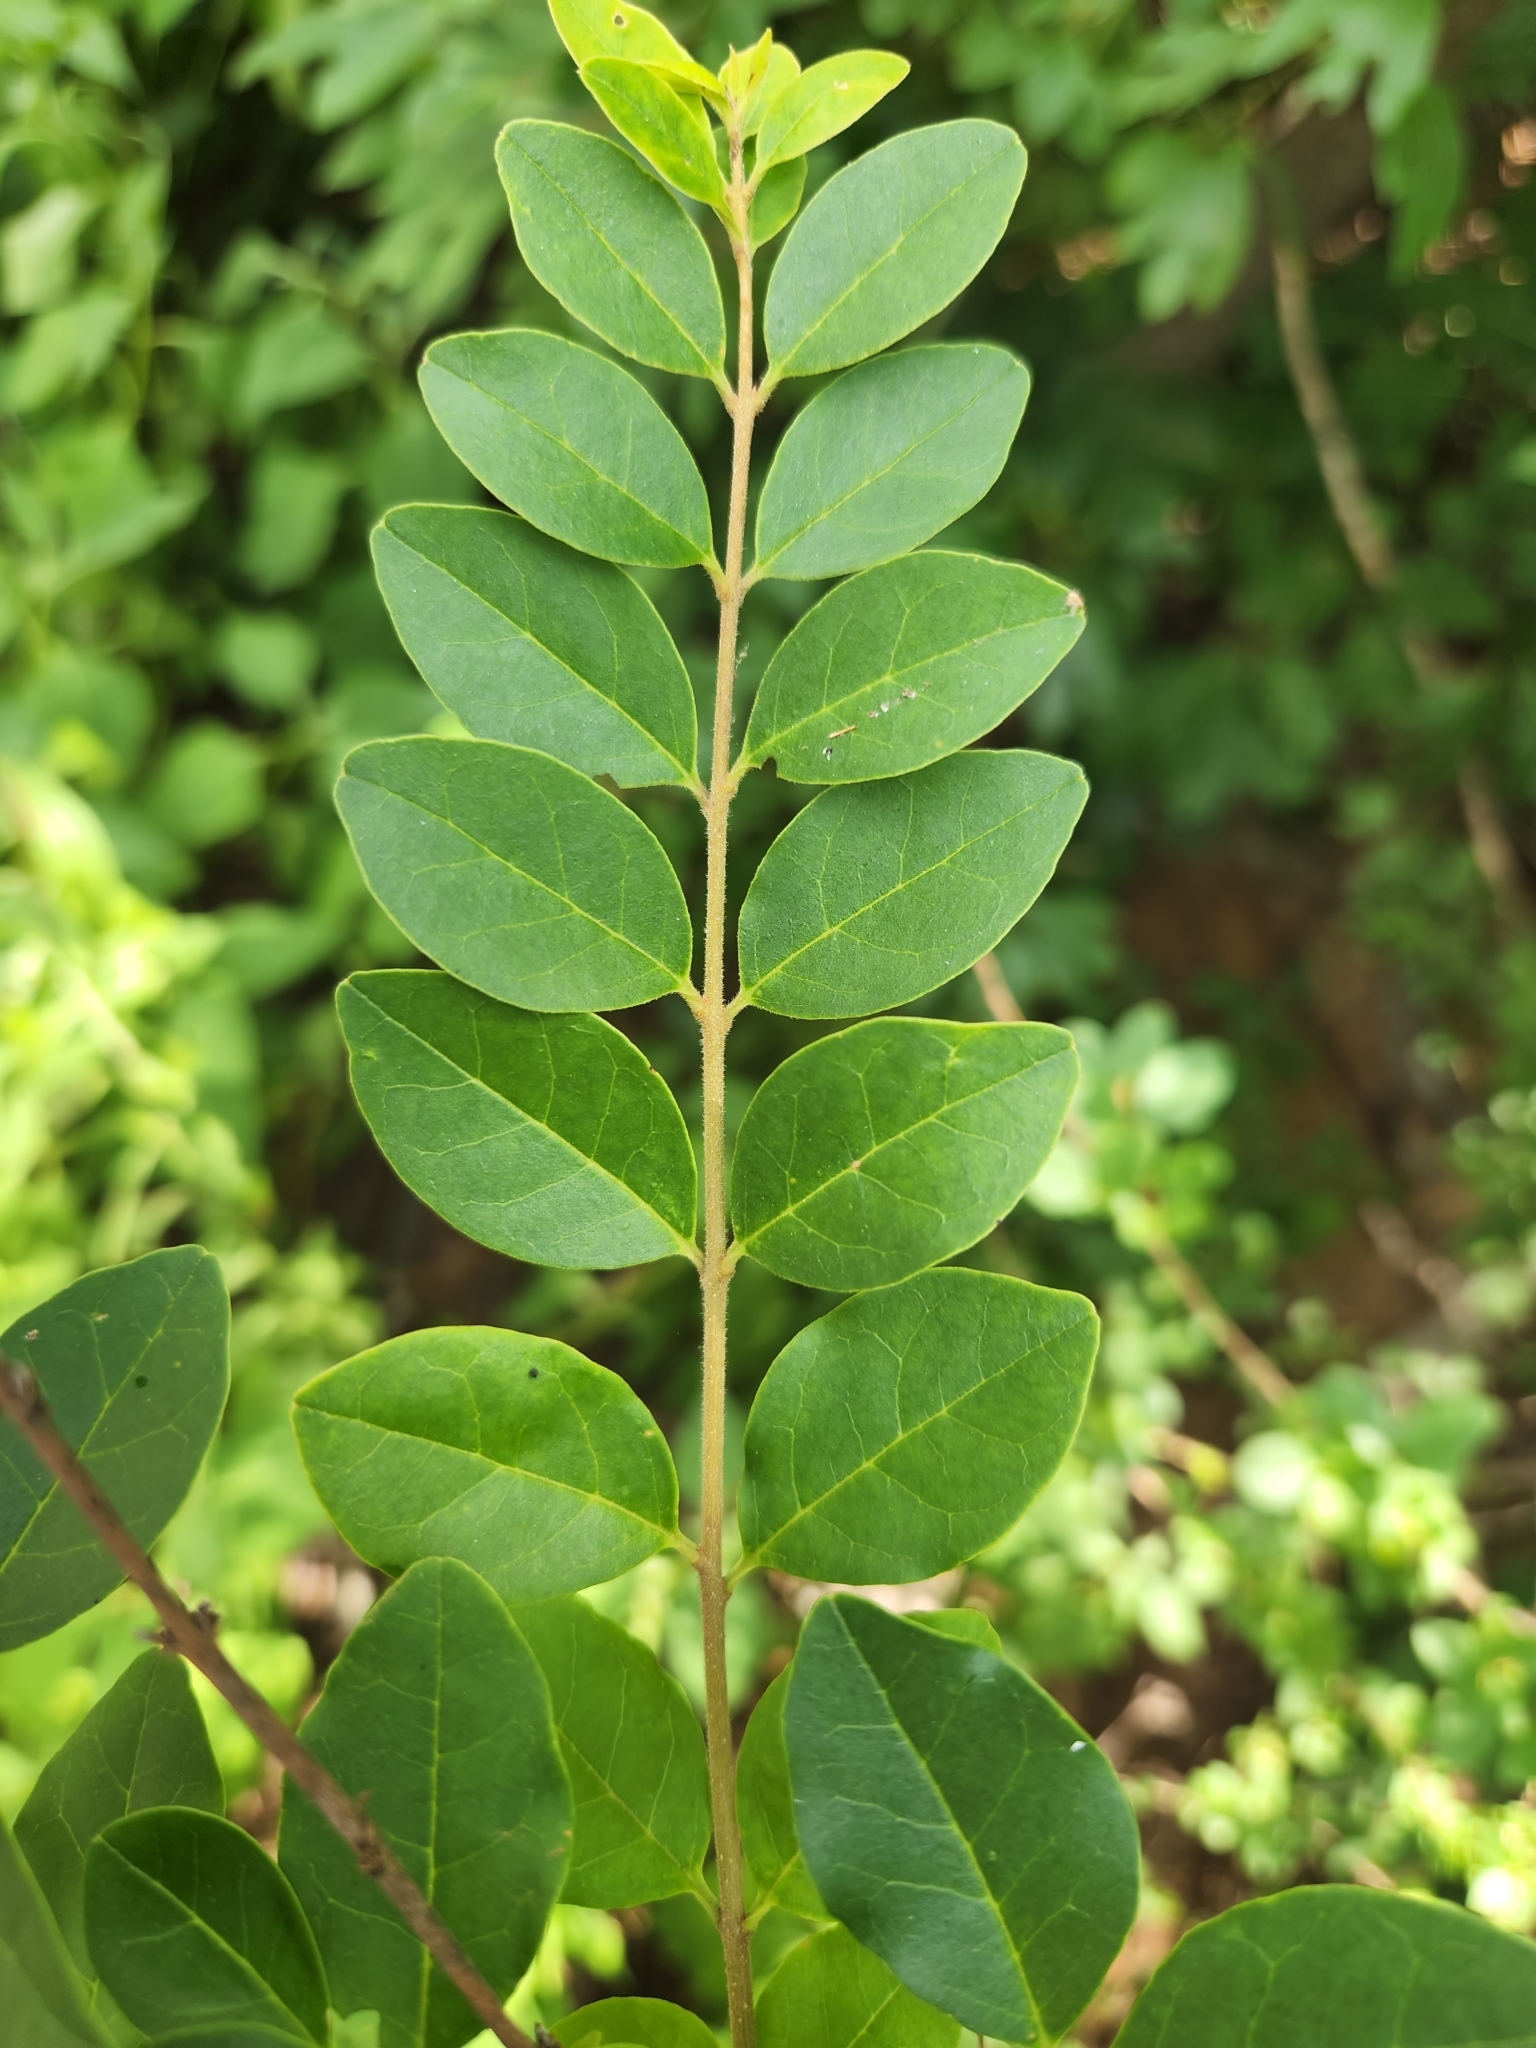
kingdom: Plantae
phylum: Tracheophyta
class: Magnoliopsida
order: Lamiales
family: Oleaceae
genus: Ligustrum
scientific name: Ligustrum sinense
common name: Chinese privet
